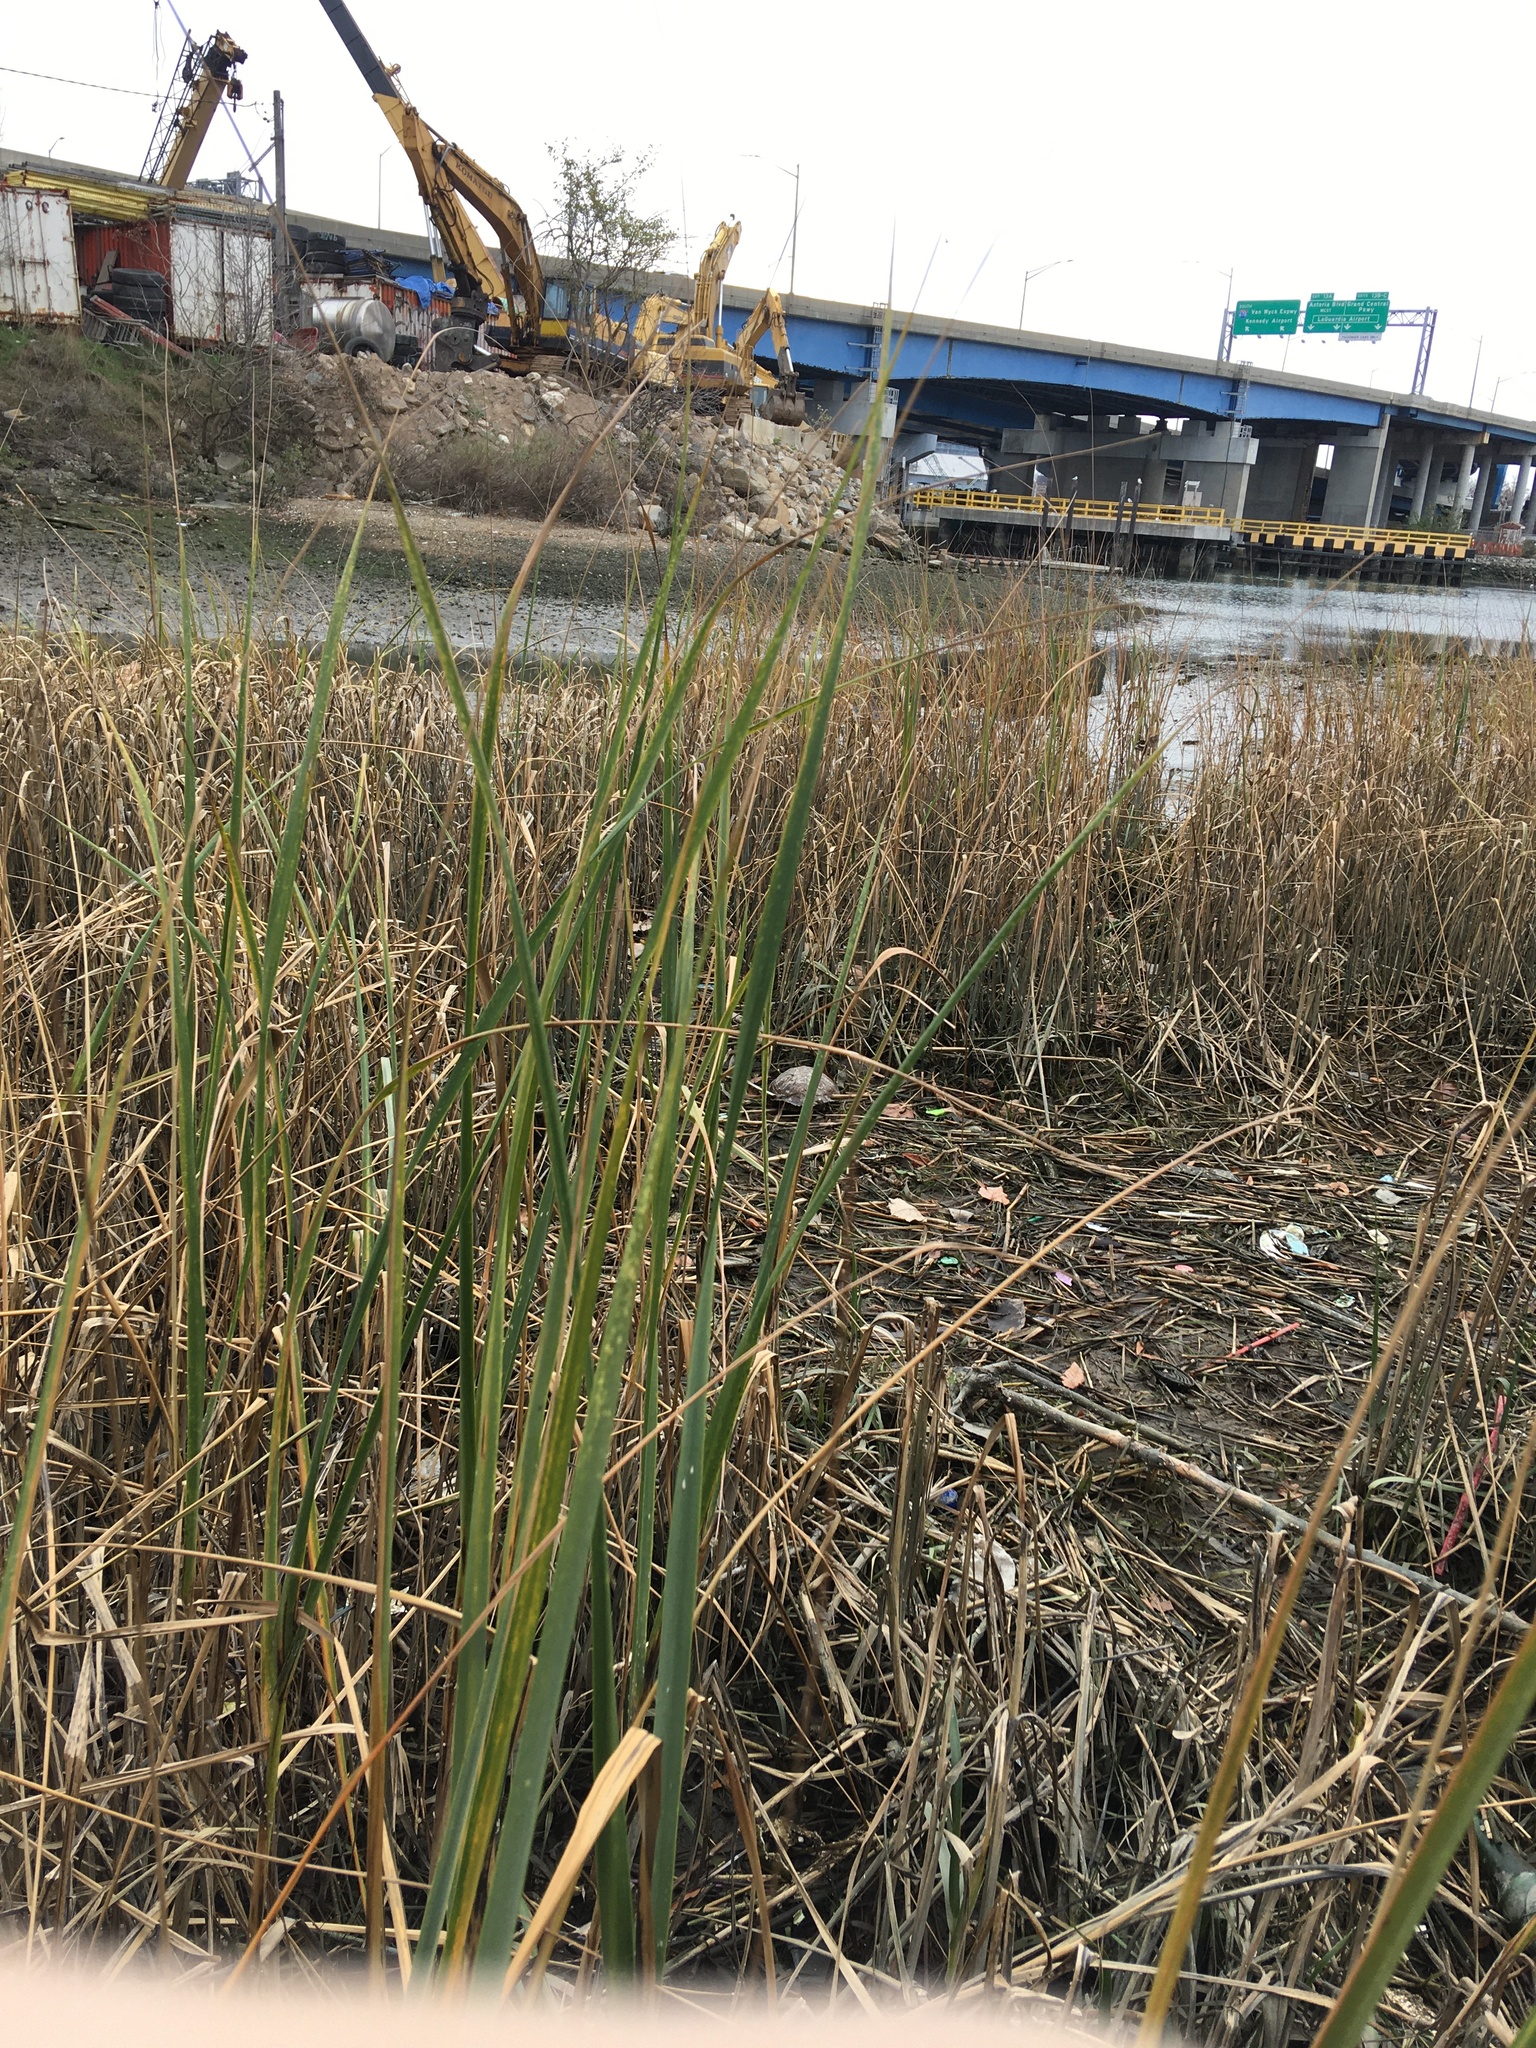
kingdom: Plantae
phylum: Tracheophyta
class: Liliopsida
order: Poales
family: Poaceae
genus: Sporobolus
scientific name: Sporobolus alterniflorus
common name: Atlantic cordgrass
